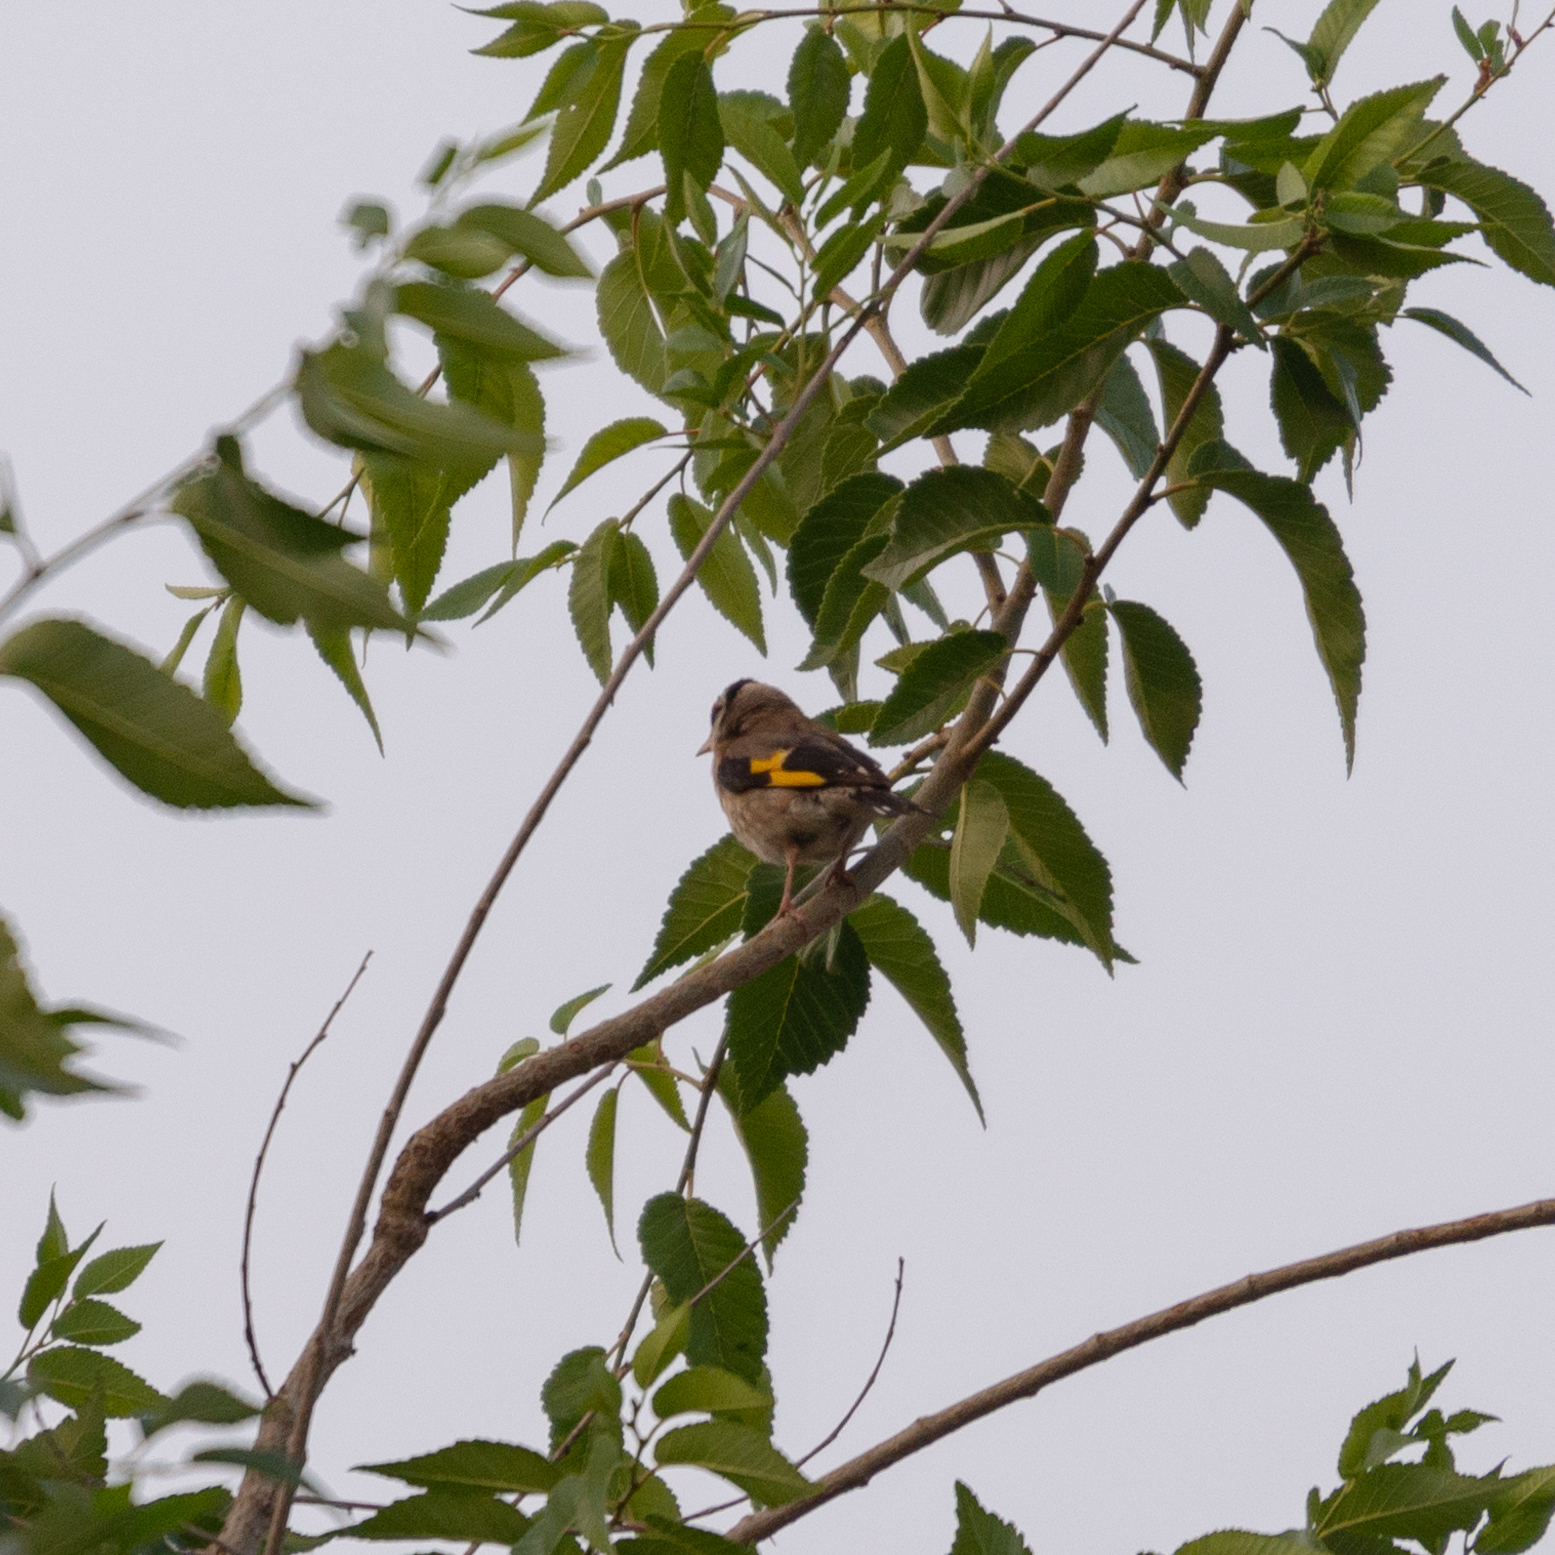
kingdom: Animalia
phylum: Chordata
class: Aves
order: Passeriformes
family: Fringillidae
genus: Carduelis
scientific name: Carduelis carduelis
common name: European goldfinch
